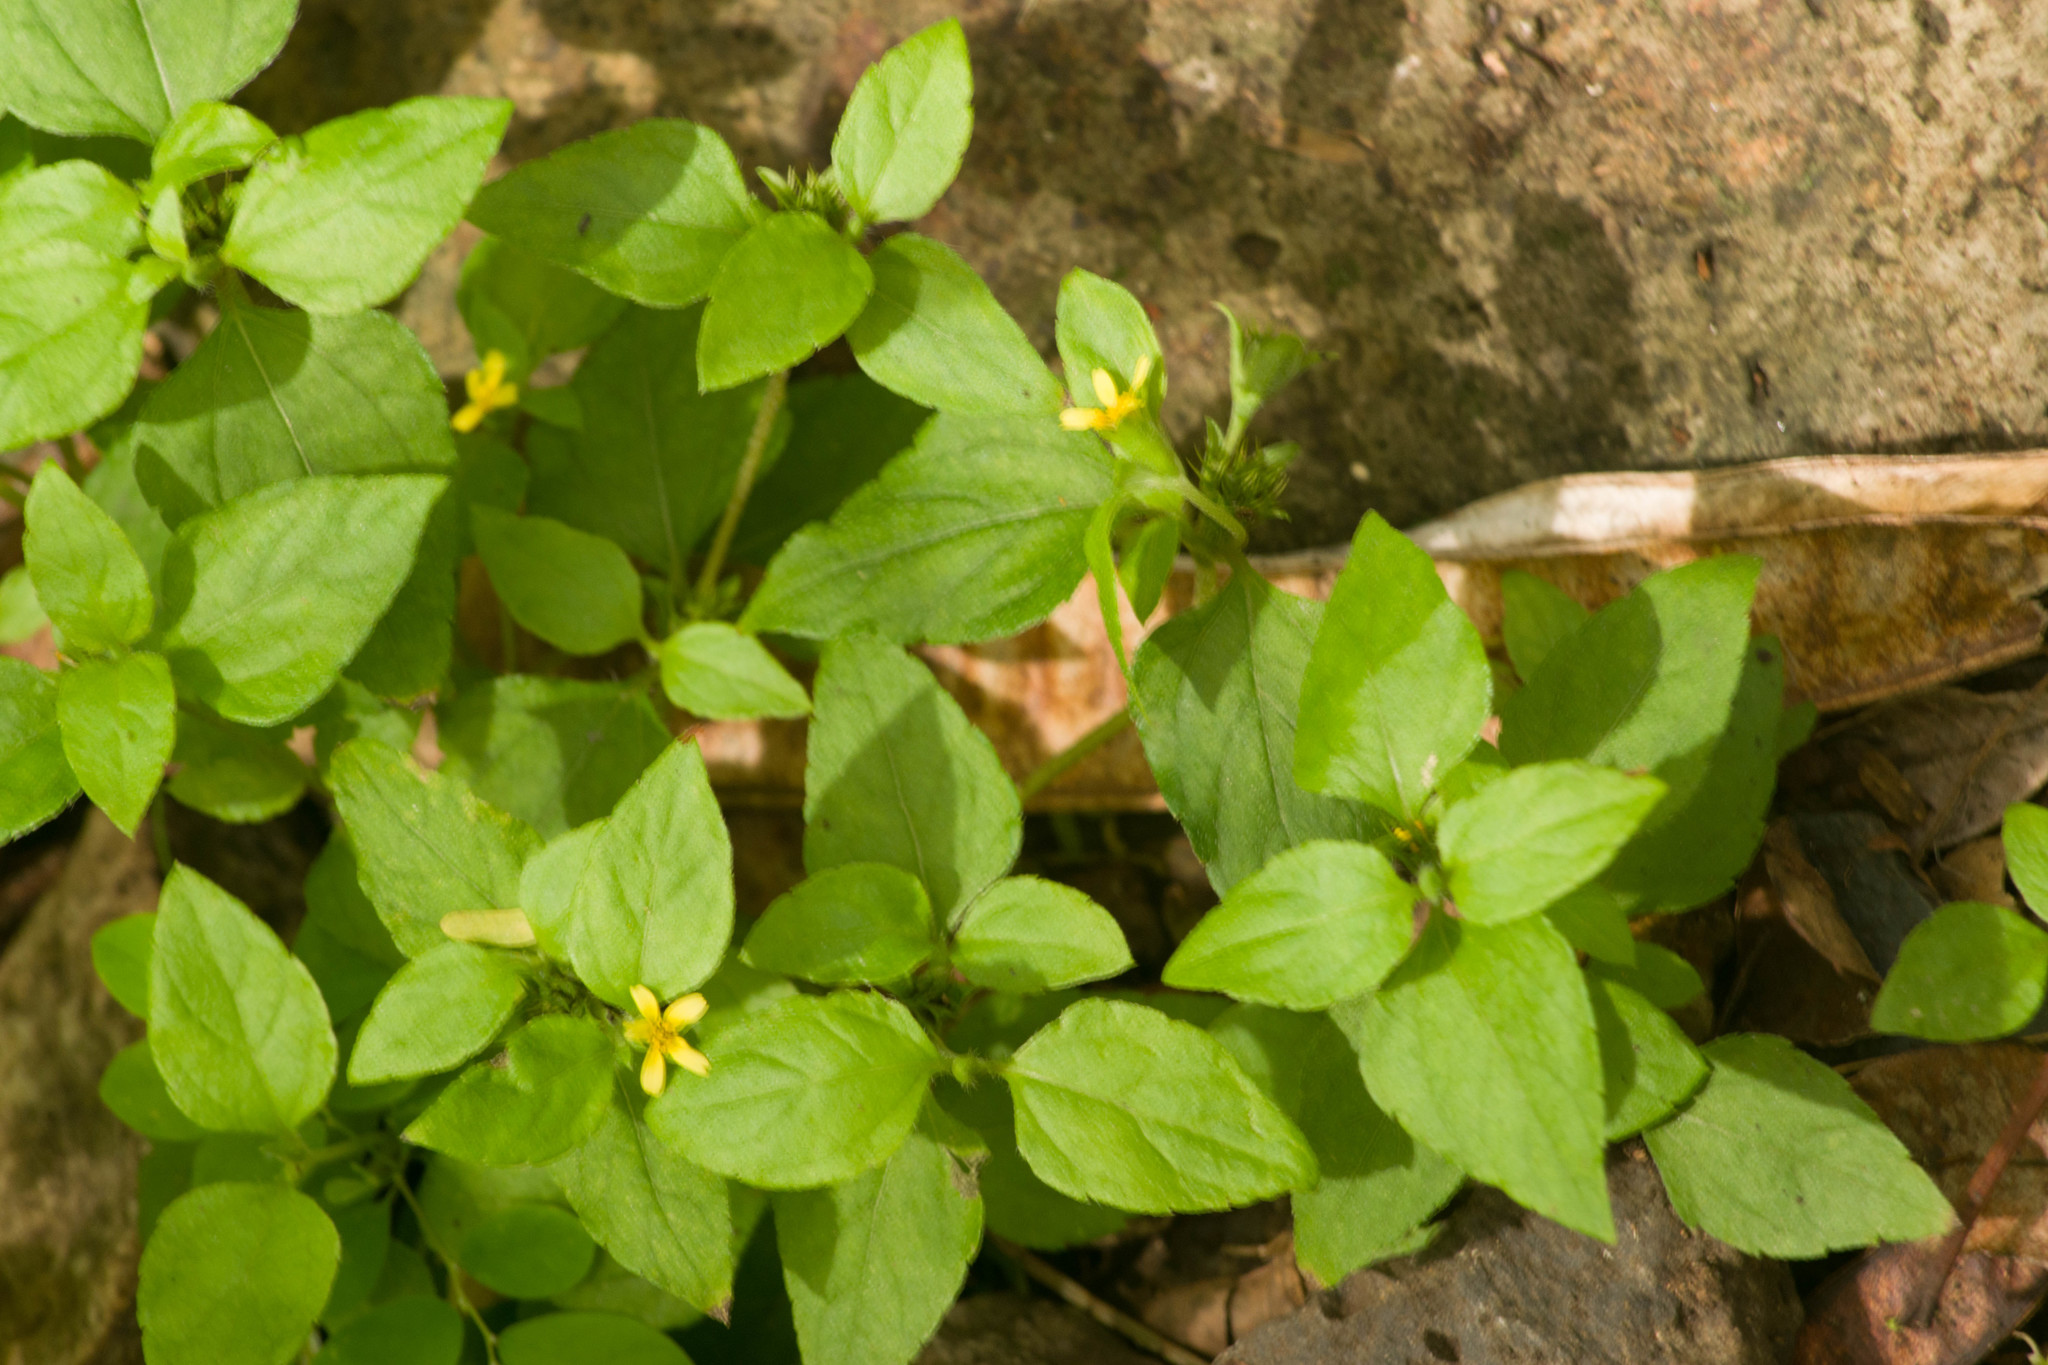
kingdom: Plantae
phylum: Tracheophyta
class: Magnoliopsida
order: Asterales
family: Asteraceae
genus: Calyptocarpus
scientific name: Calyptocarpus vialis
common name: Straggler daisy
